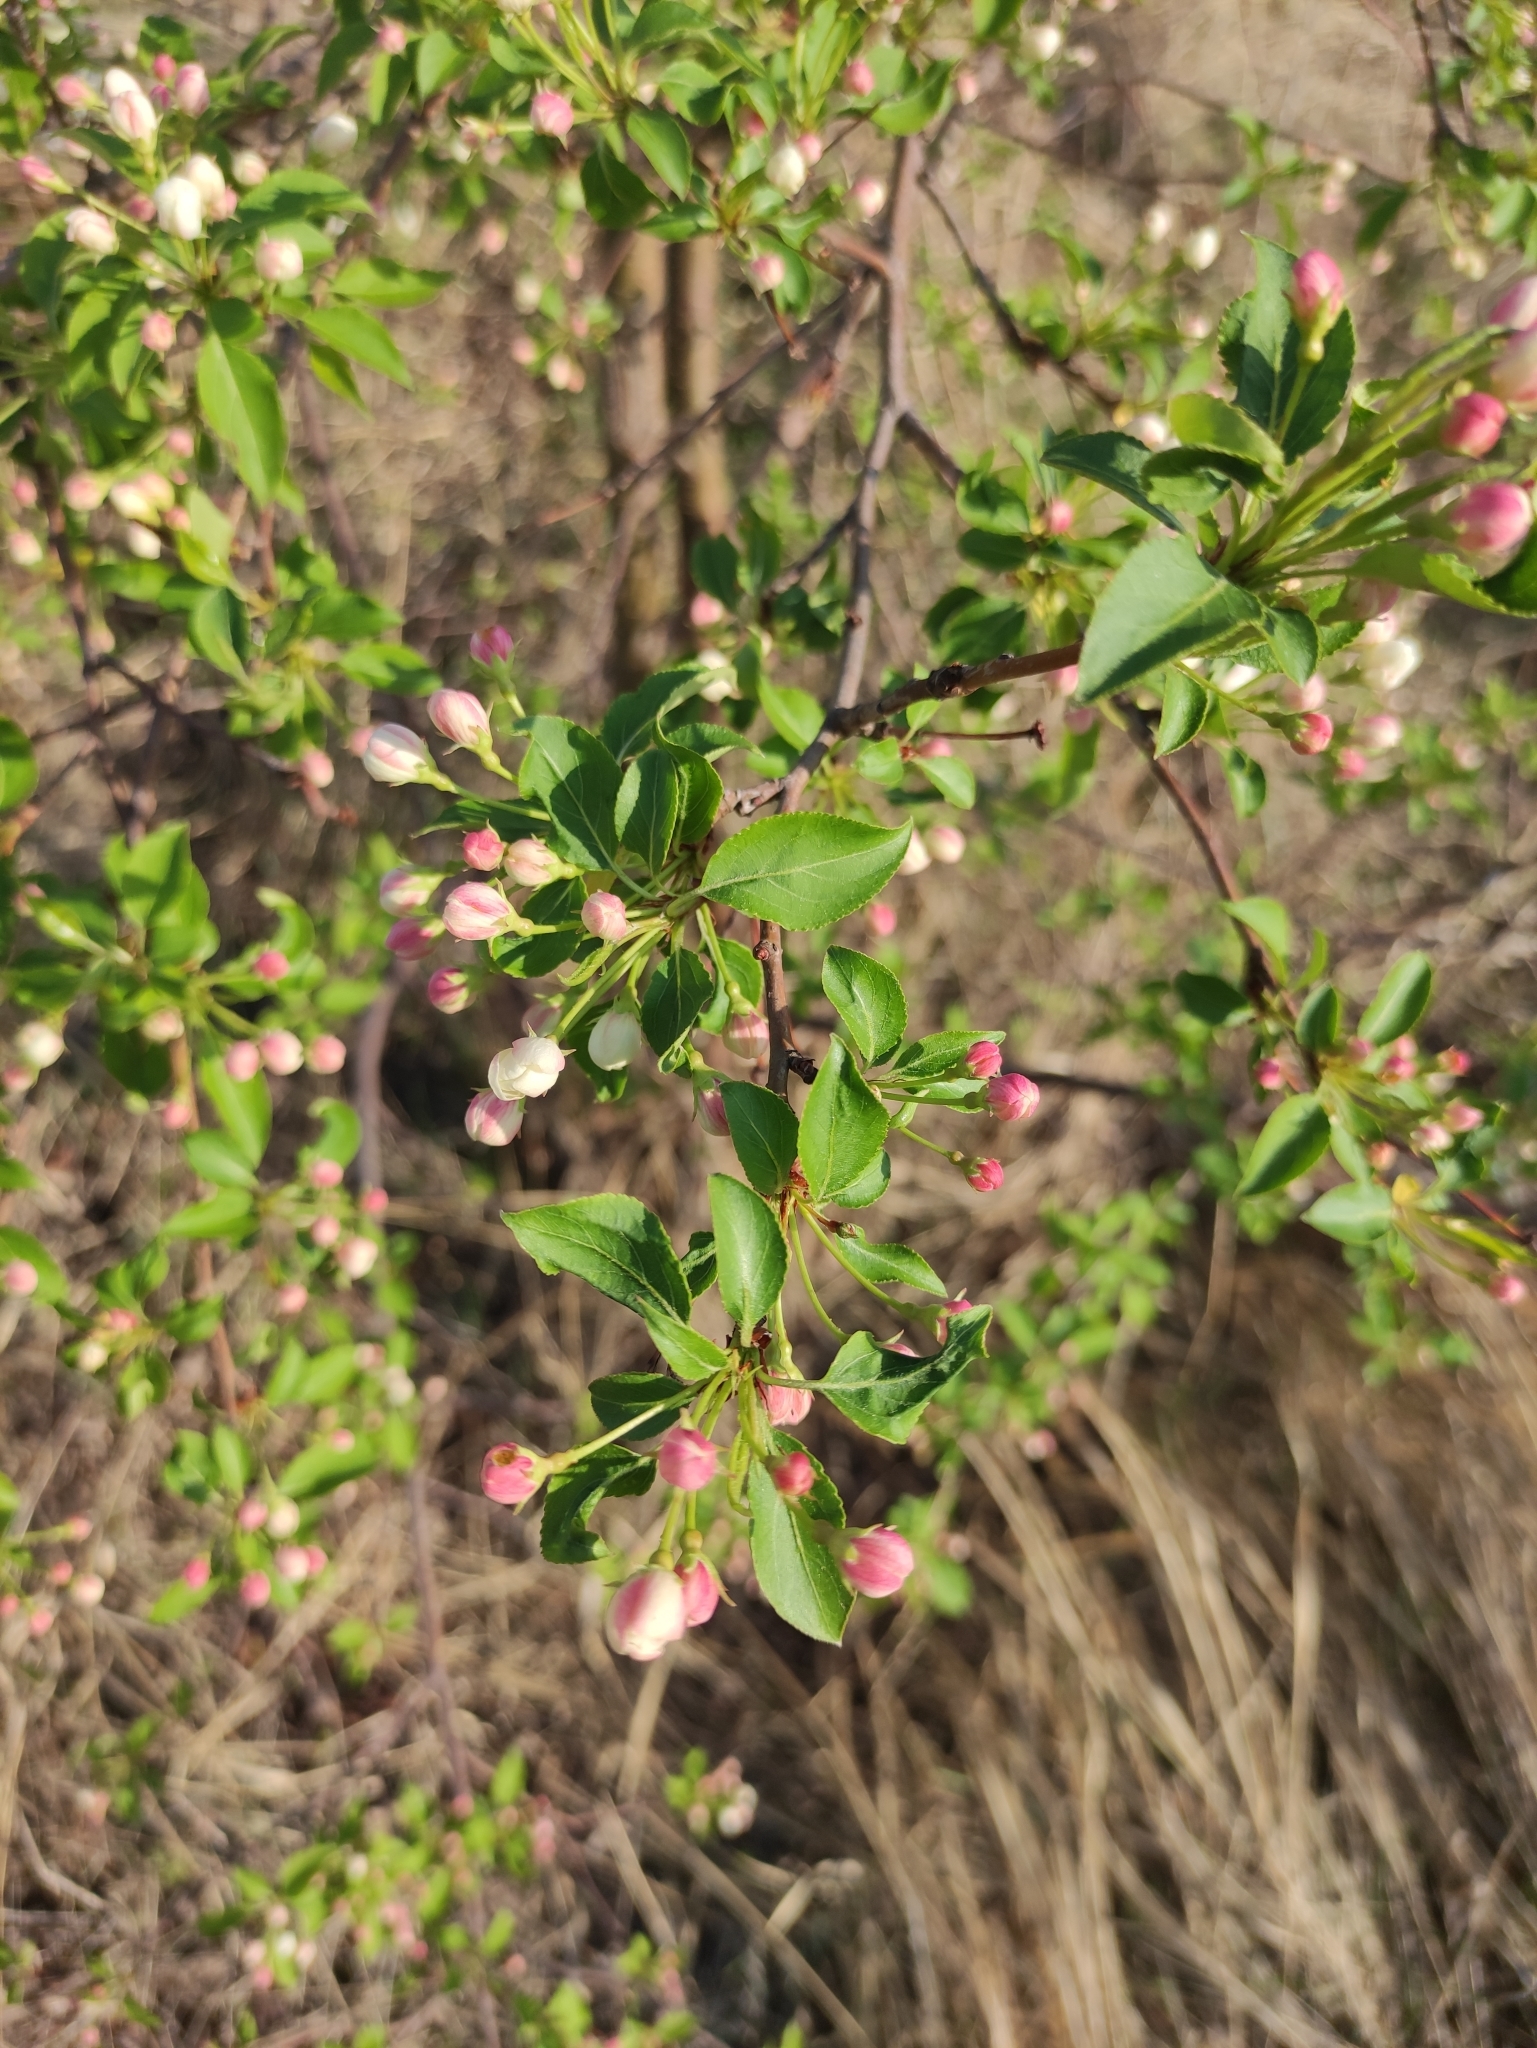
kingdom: Plantae
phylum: Tracheophyta
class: Magnoliopsida
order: Rosales
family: Rosaceae
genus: Malus
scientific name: Malus baccata
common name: Siberian crab
